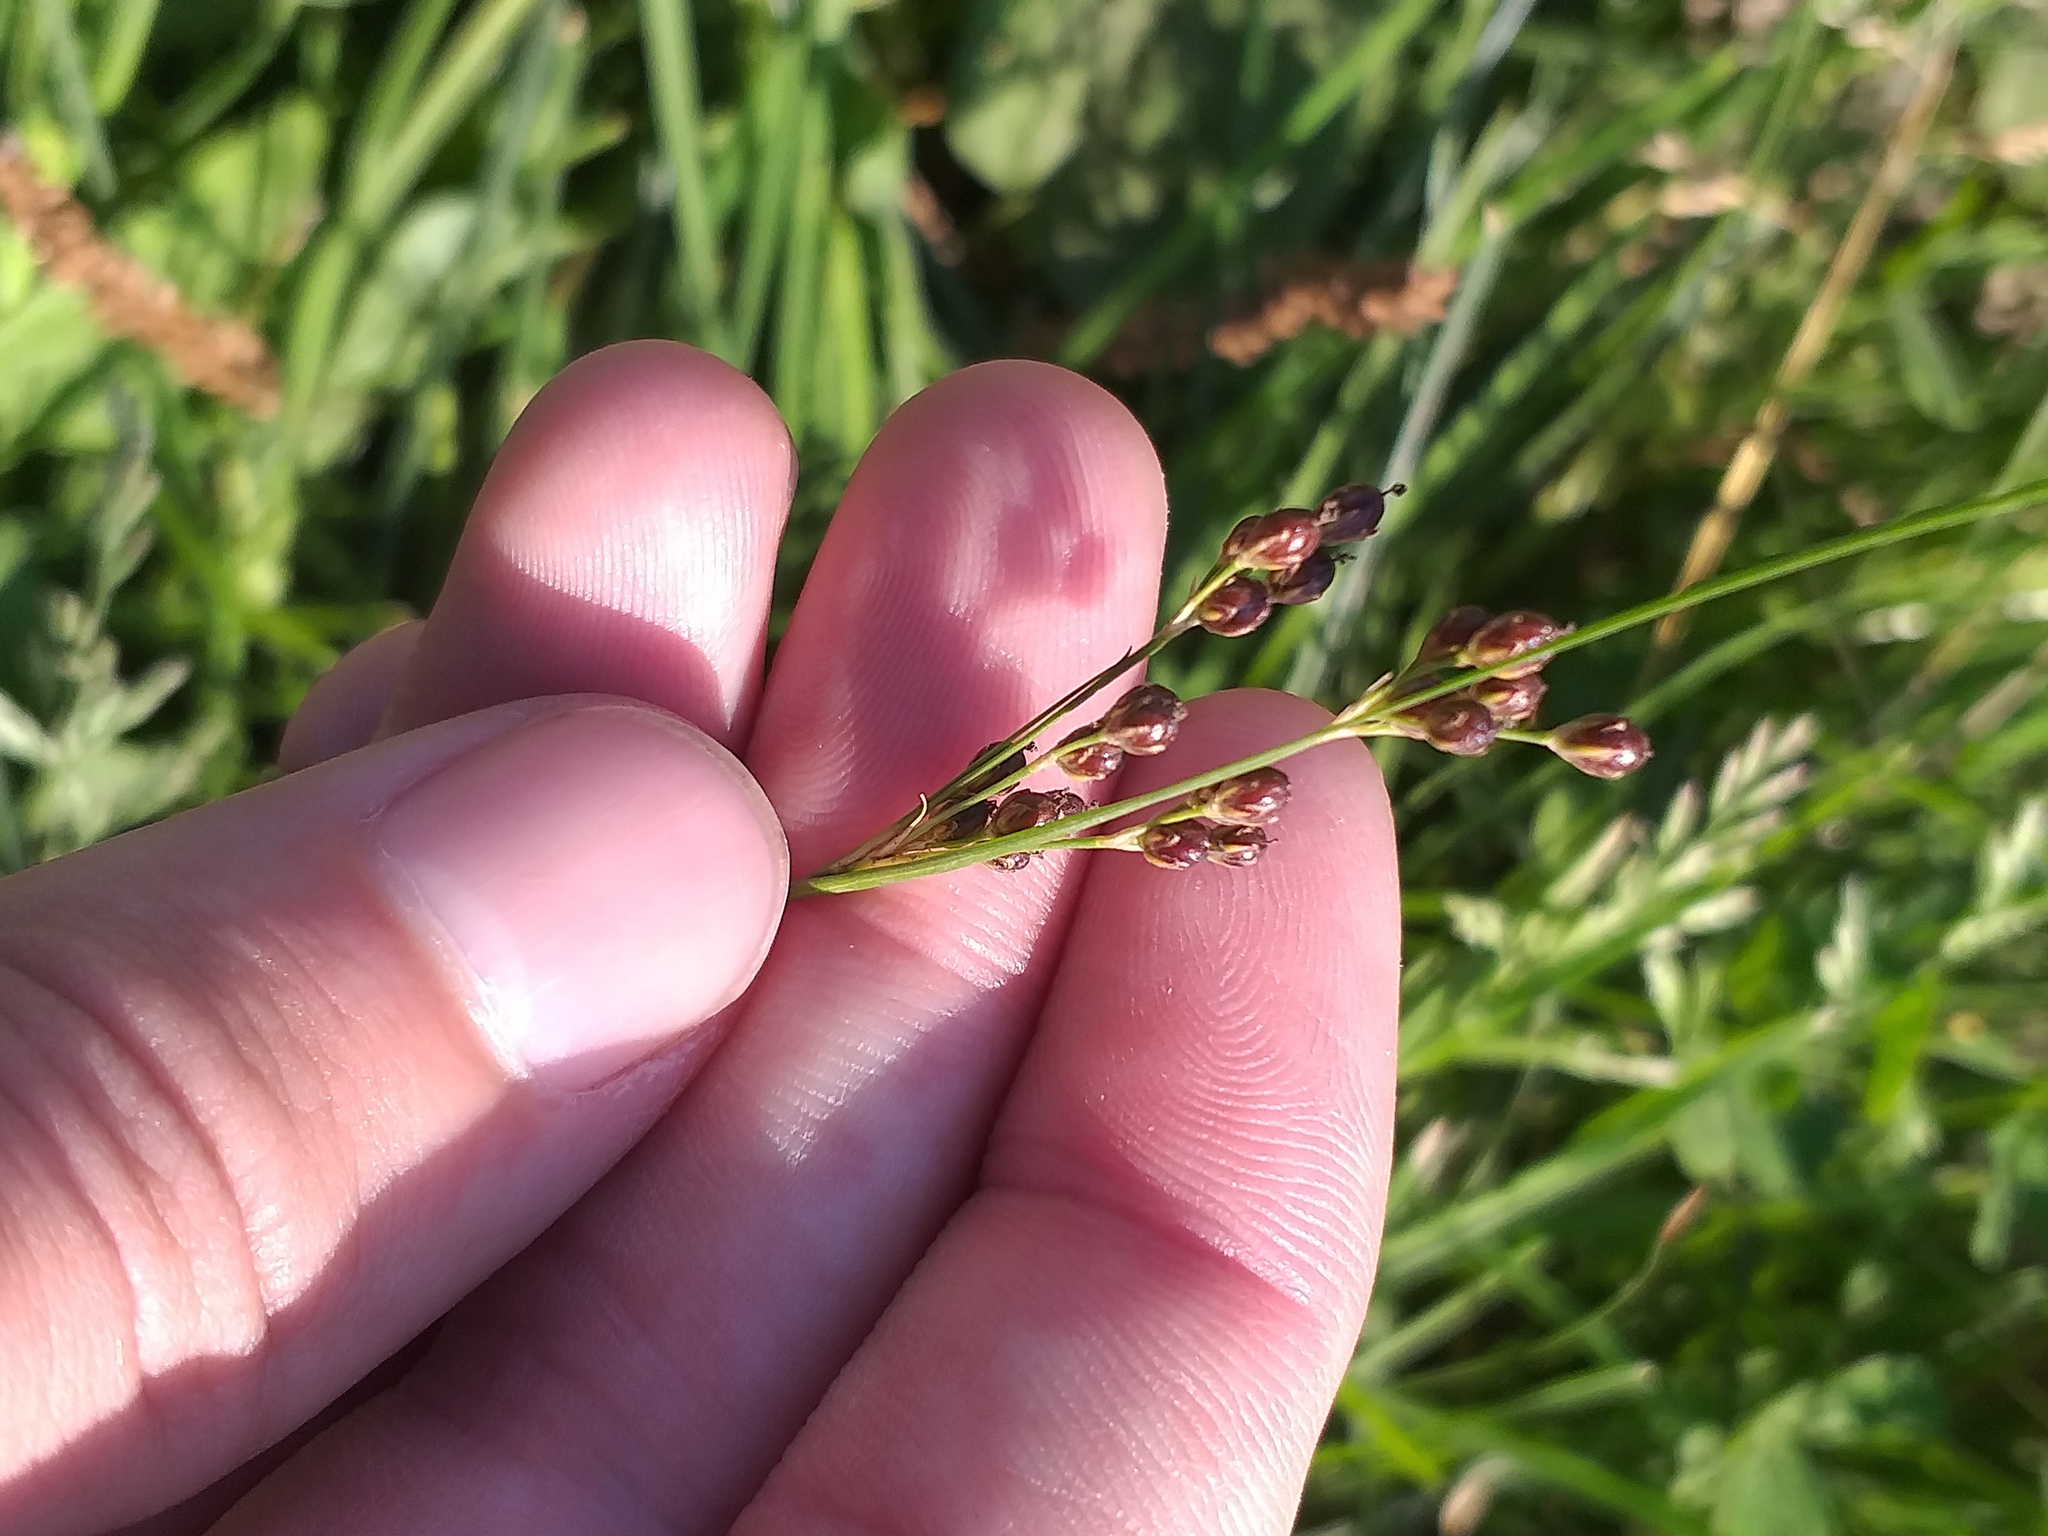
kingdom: Plantae
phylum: Tracheophyta
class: Liliopsida
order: Poales
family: Juncaceae
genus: Juncus
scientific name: Juncus compressus
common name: Round-fruited rush
